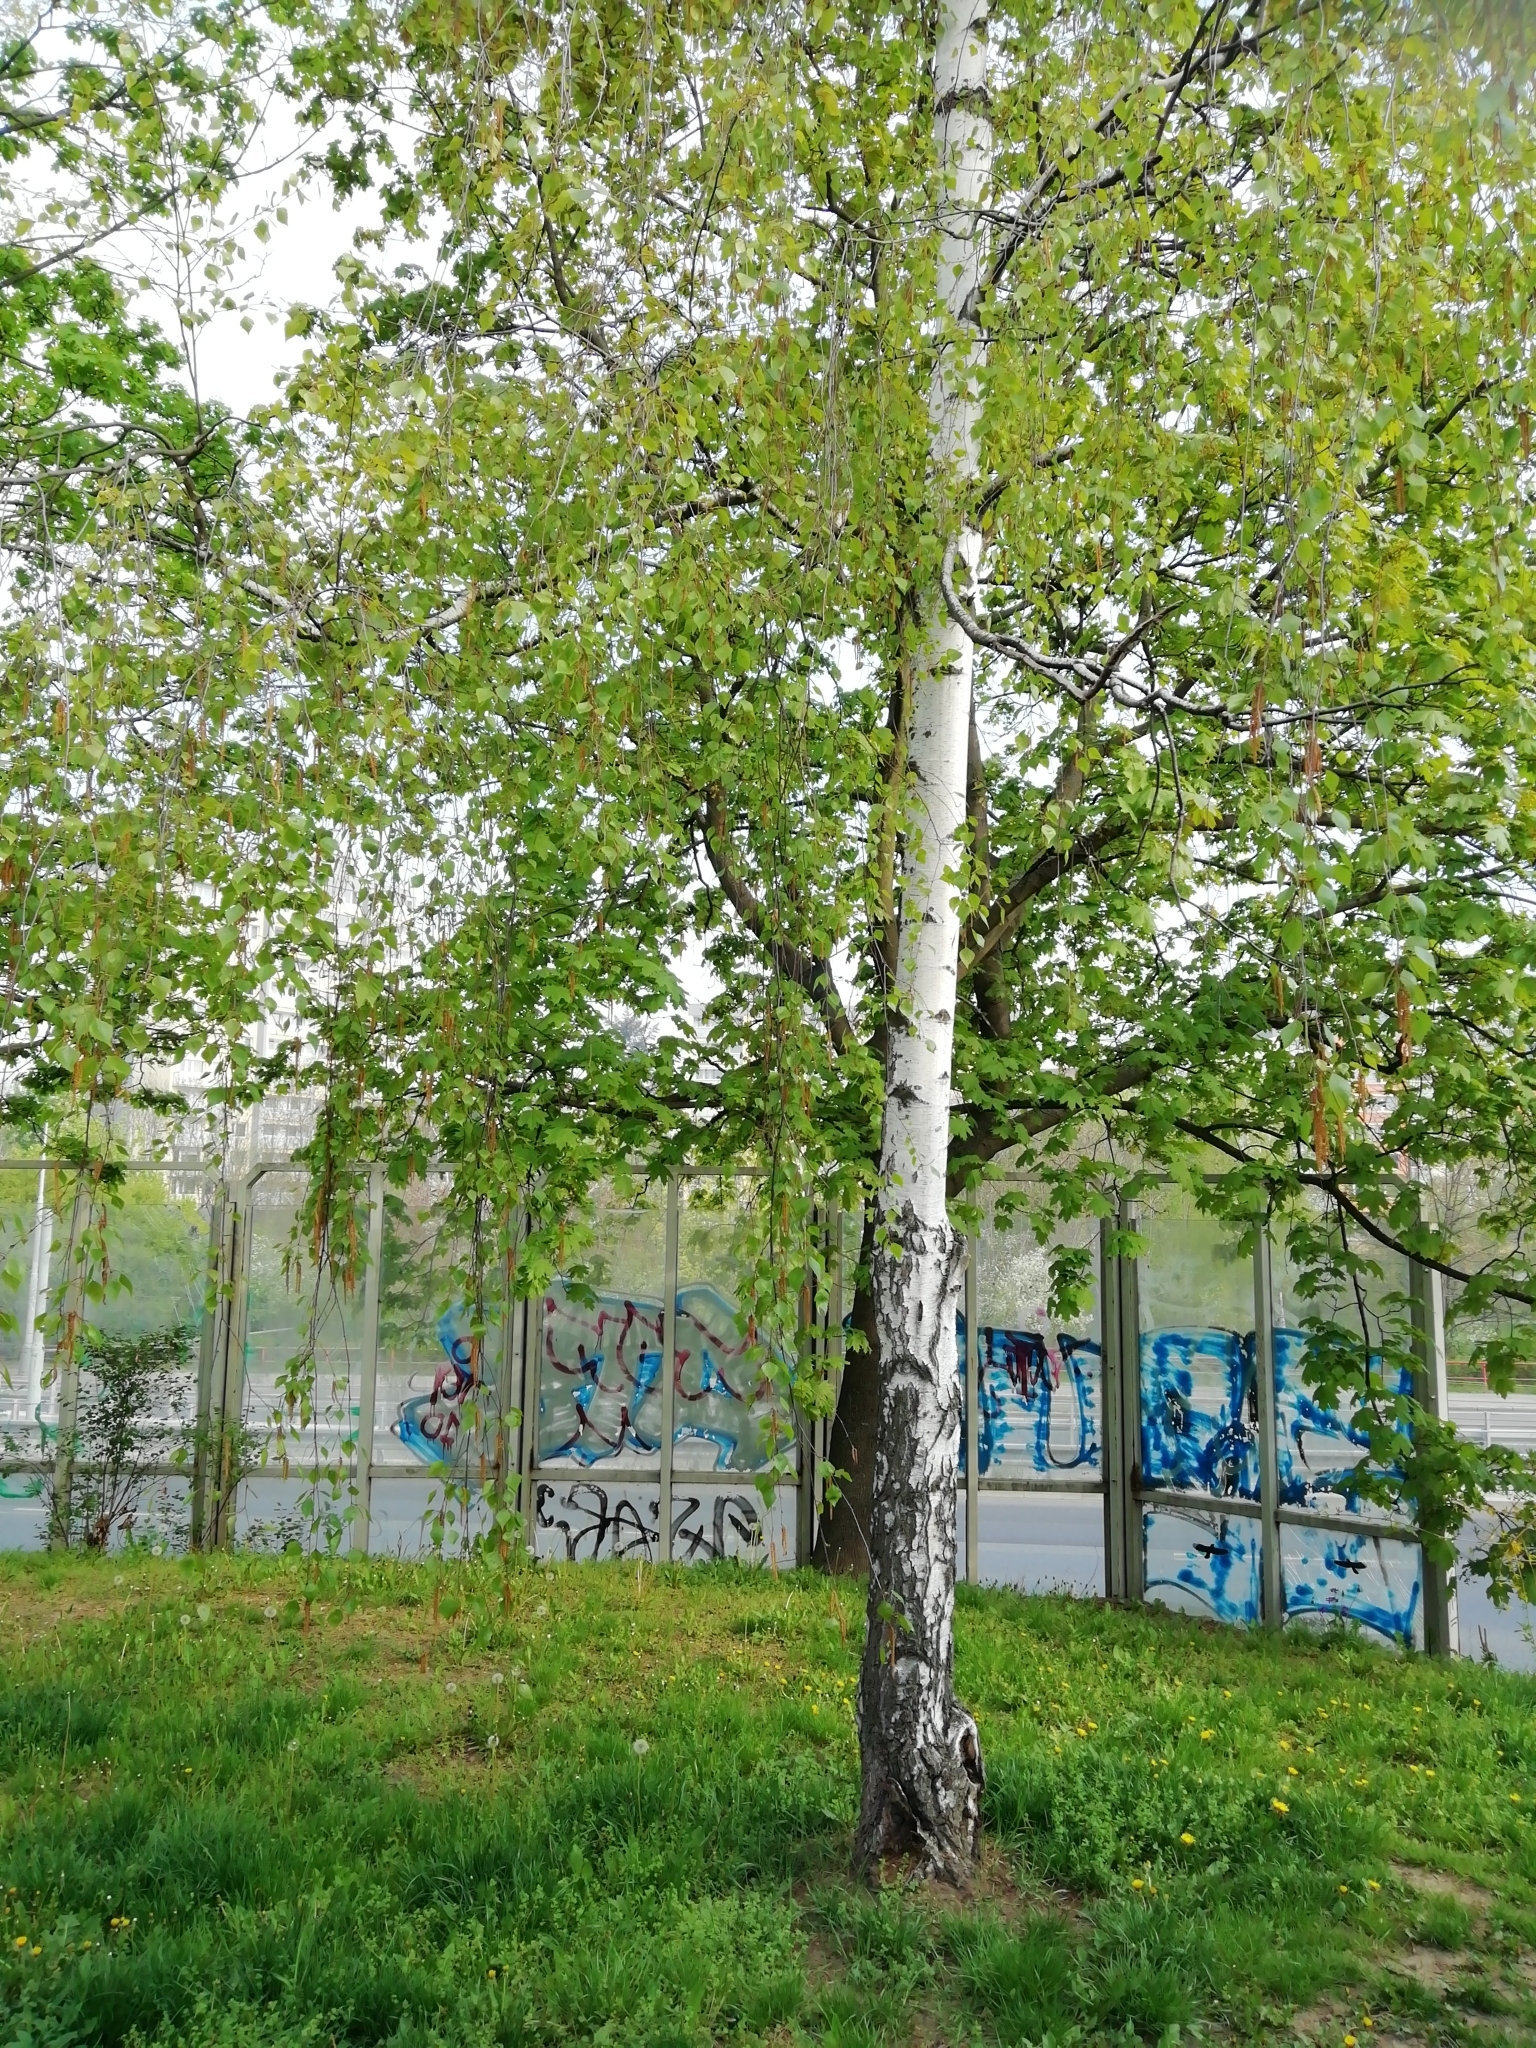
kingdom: Plantae
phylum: Tracheophyta
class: Magnoliopsida
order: Fagales
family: Betulaceae
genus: Betula
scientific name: Betula pendula
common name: Silver birch
